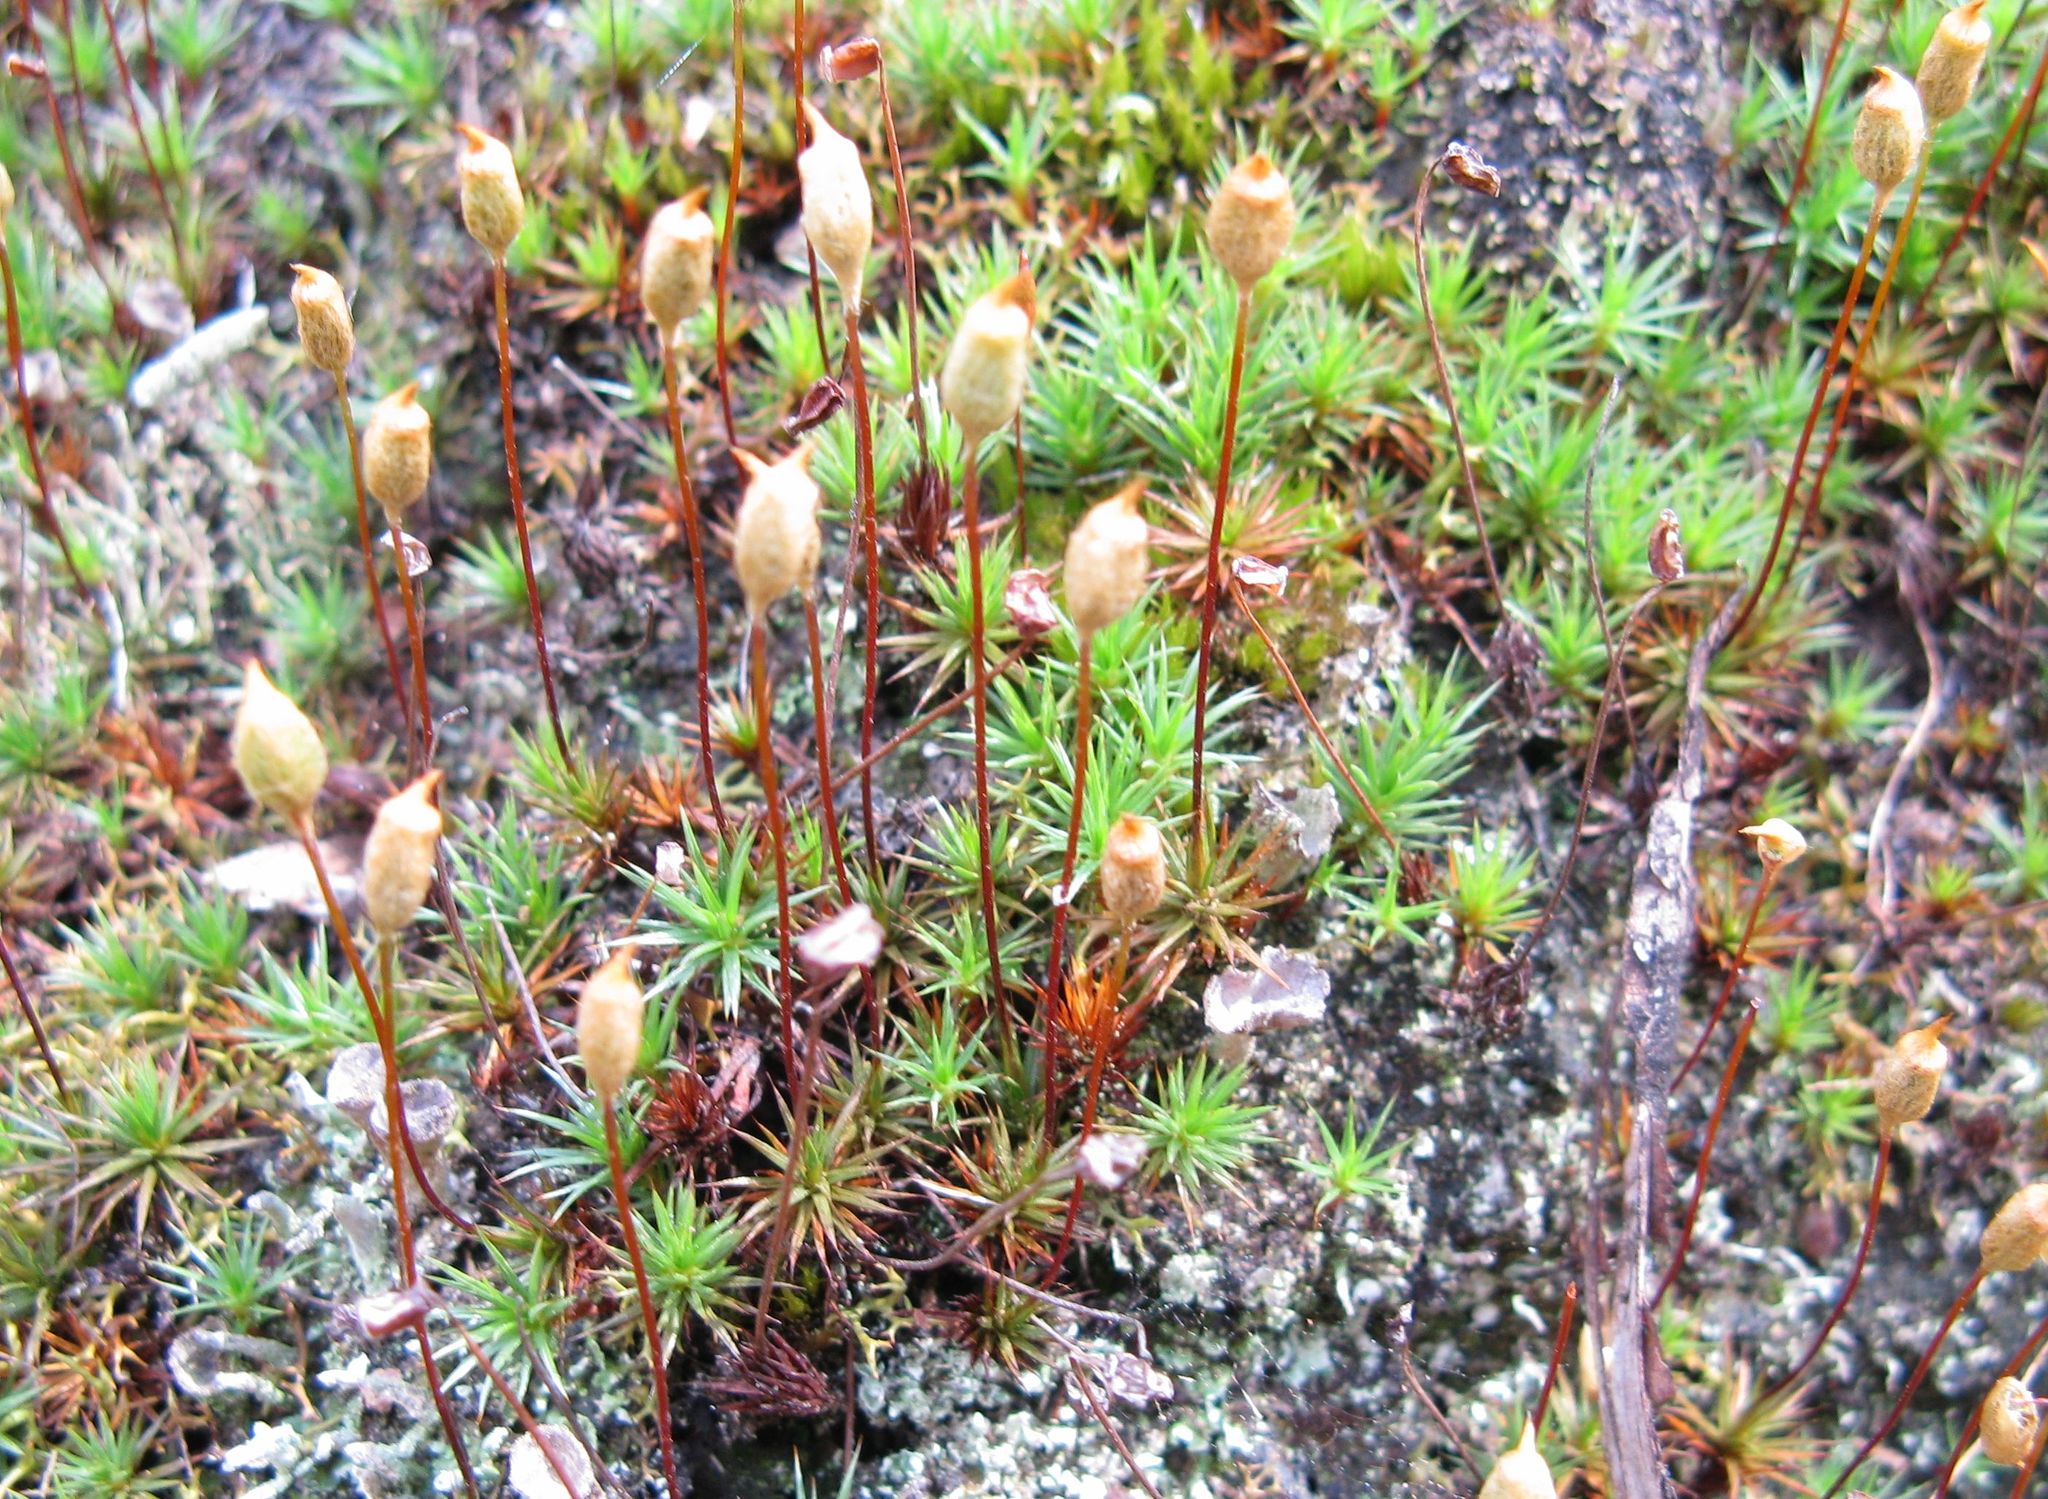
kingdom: Plantae
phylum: Bryophyta
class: Polytrichopsida
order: Polytrichales
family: Polytrichaceae
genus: Polytrichum
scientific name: Polytrichum juniperinum
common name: Juniper haircap moss
